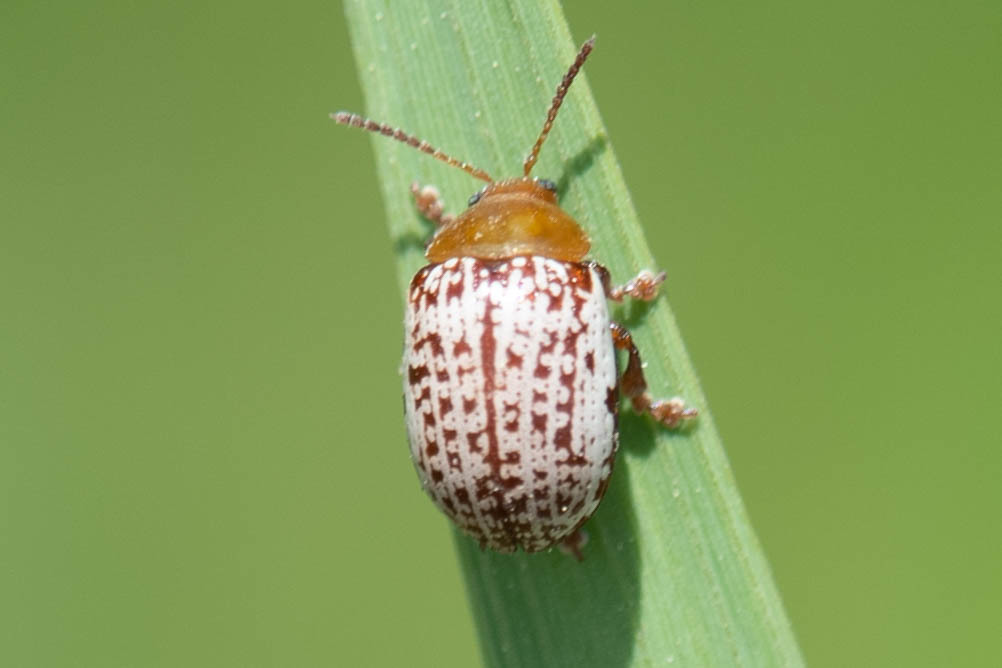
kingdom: Animalia
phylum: Arthropoda
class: Insecta
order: Coleoptera
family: Chrysomelidae
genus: Blepharida
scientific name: Blepharida rhois
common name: Sumac flea beetle
